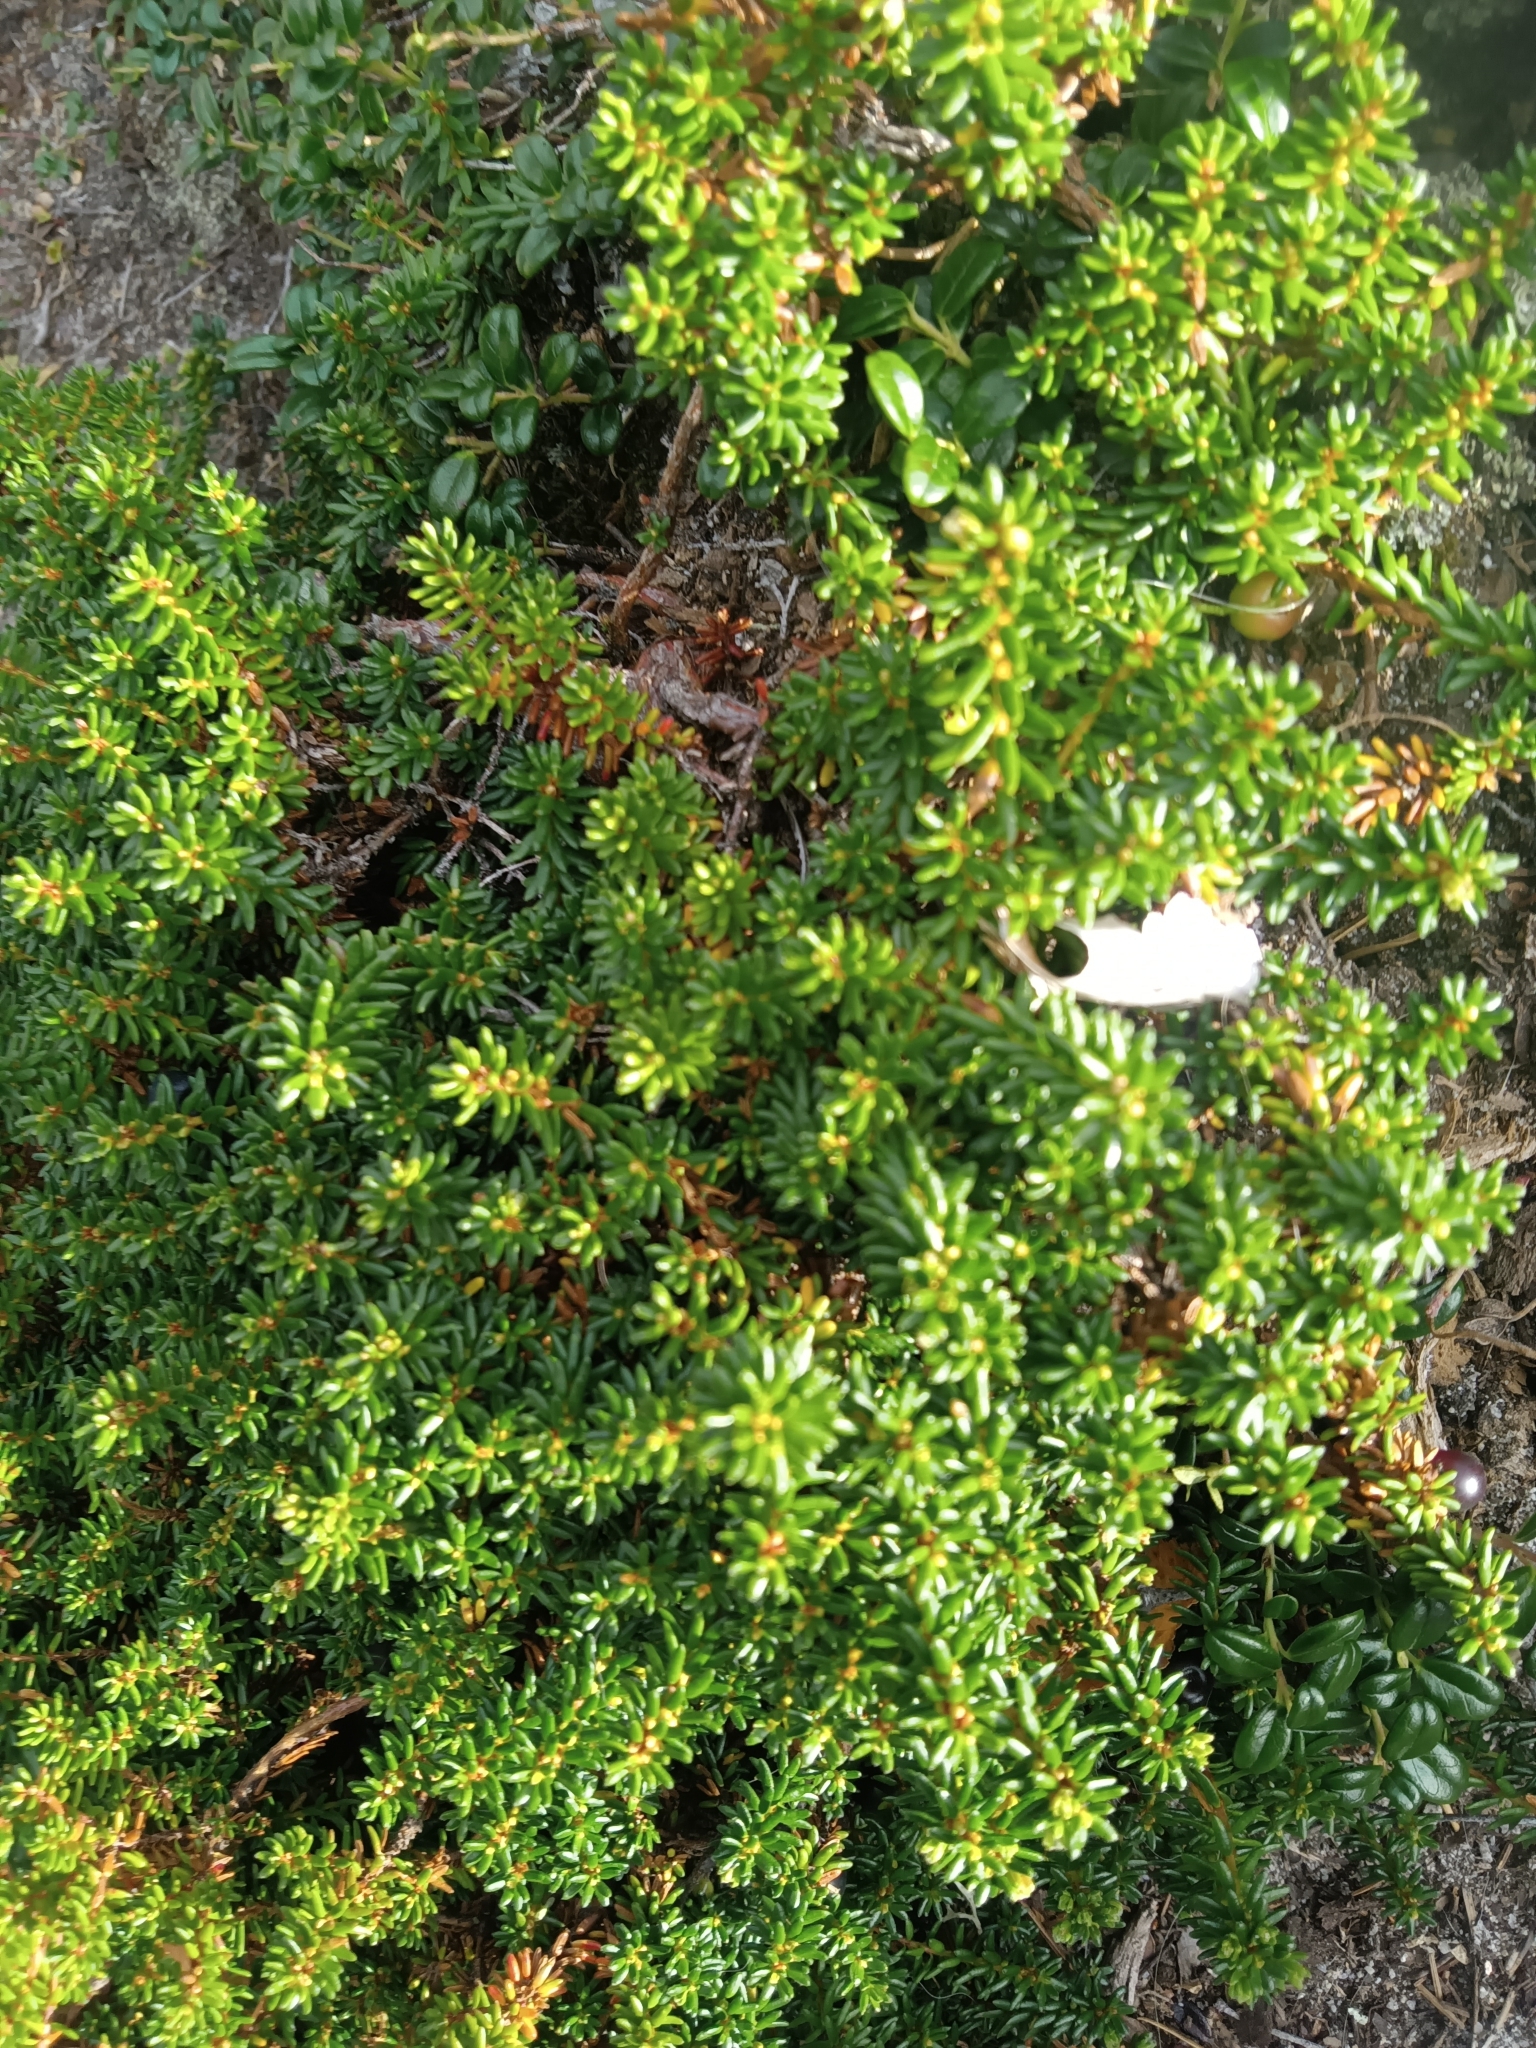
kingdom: Plantae
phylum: Tracheophyta
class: Magnoliopsida
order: Ericales
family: Ericaceae
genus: Empetrum
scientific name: Empetrum nigrum
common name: Black crowberry
